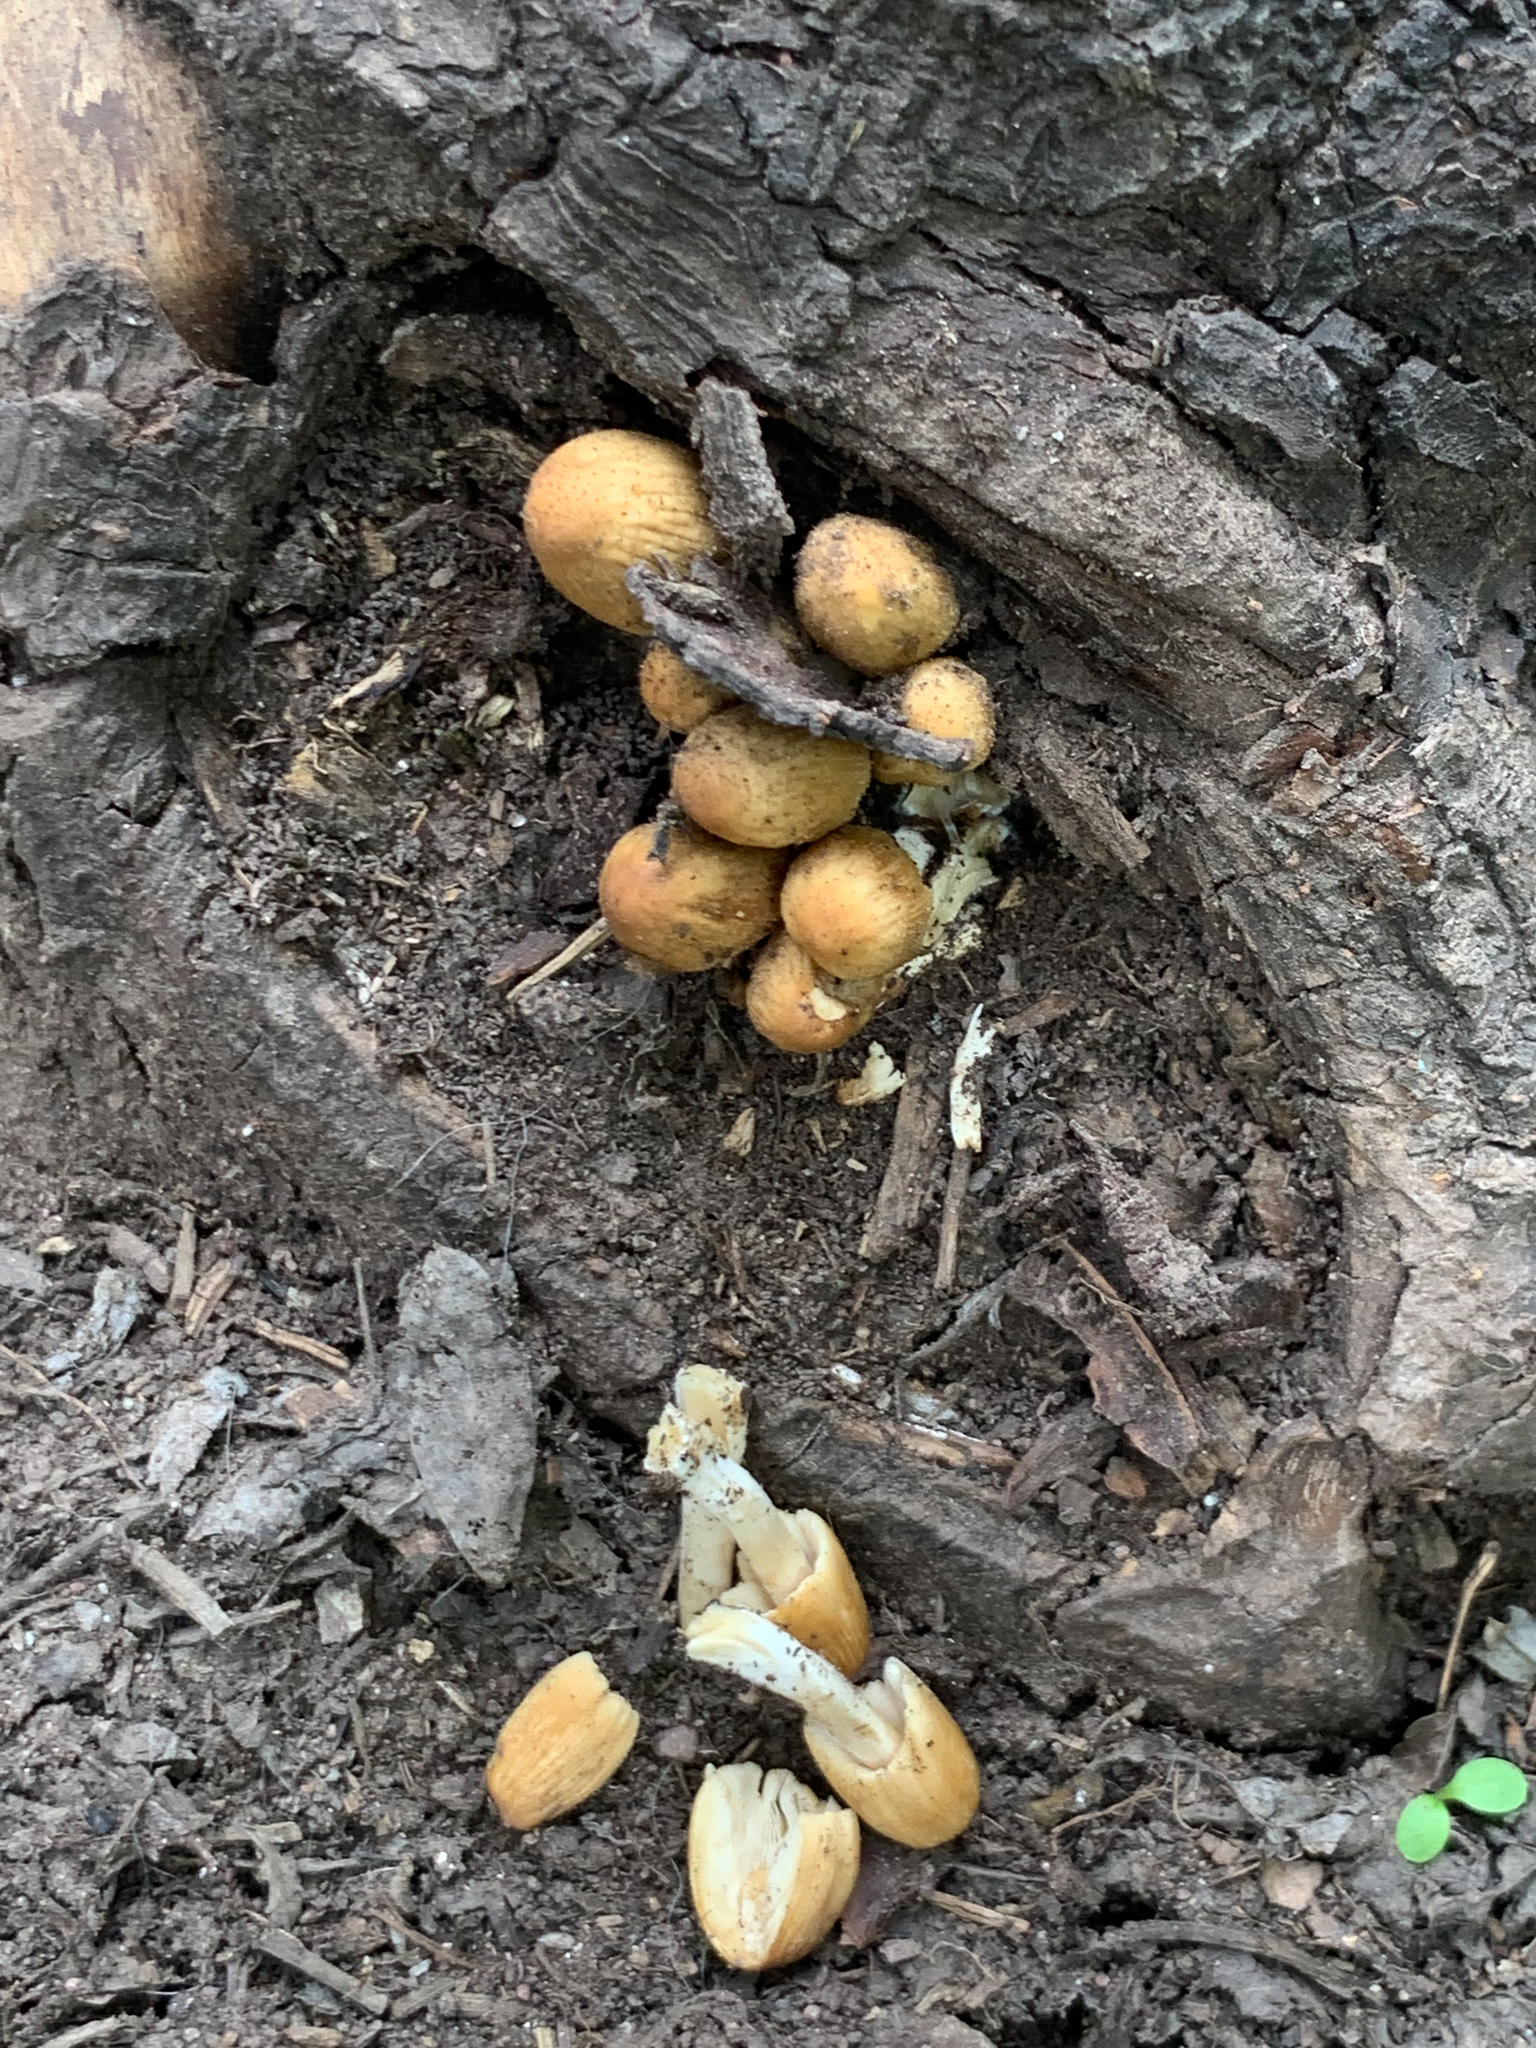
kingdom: Fungi
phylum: Basidiomycota
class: Agaricomycetes
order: Agaricales
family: Psathyrellaceae
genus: Coprinellus
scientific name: Coprinellus micaceus
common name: Glistening ink-cap
